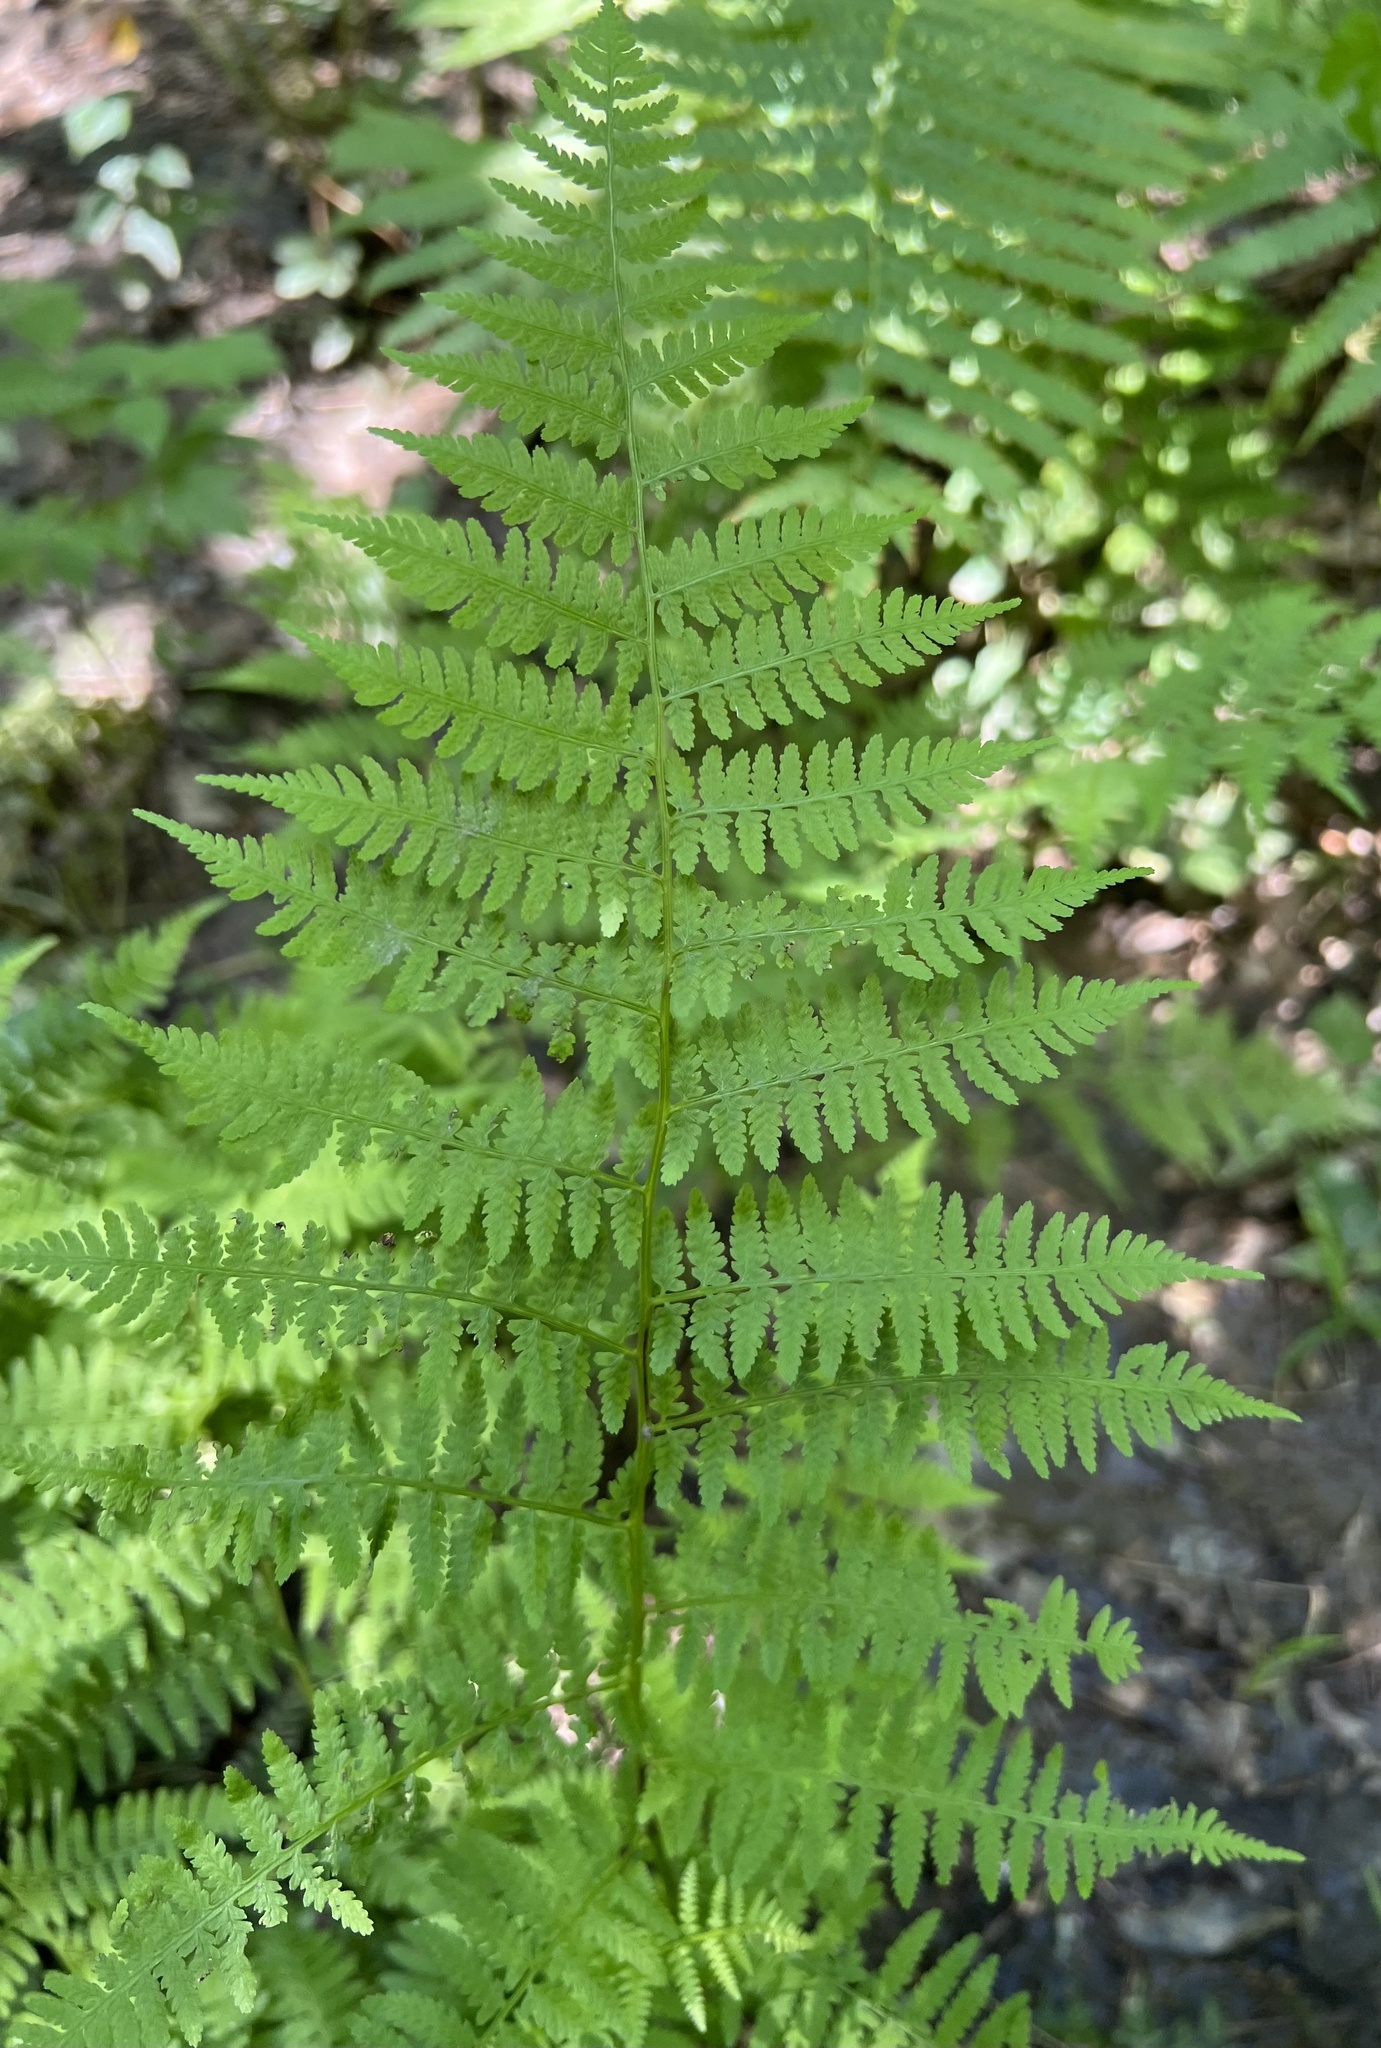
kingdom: Plantae
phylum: Tracheophyta
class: Polypodiopsida
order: Polypodiales
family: Athyriaceae
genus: Athyrium
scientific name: Athyrium asplenioides
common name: Southern lady fern
